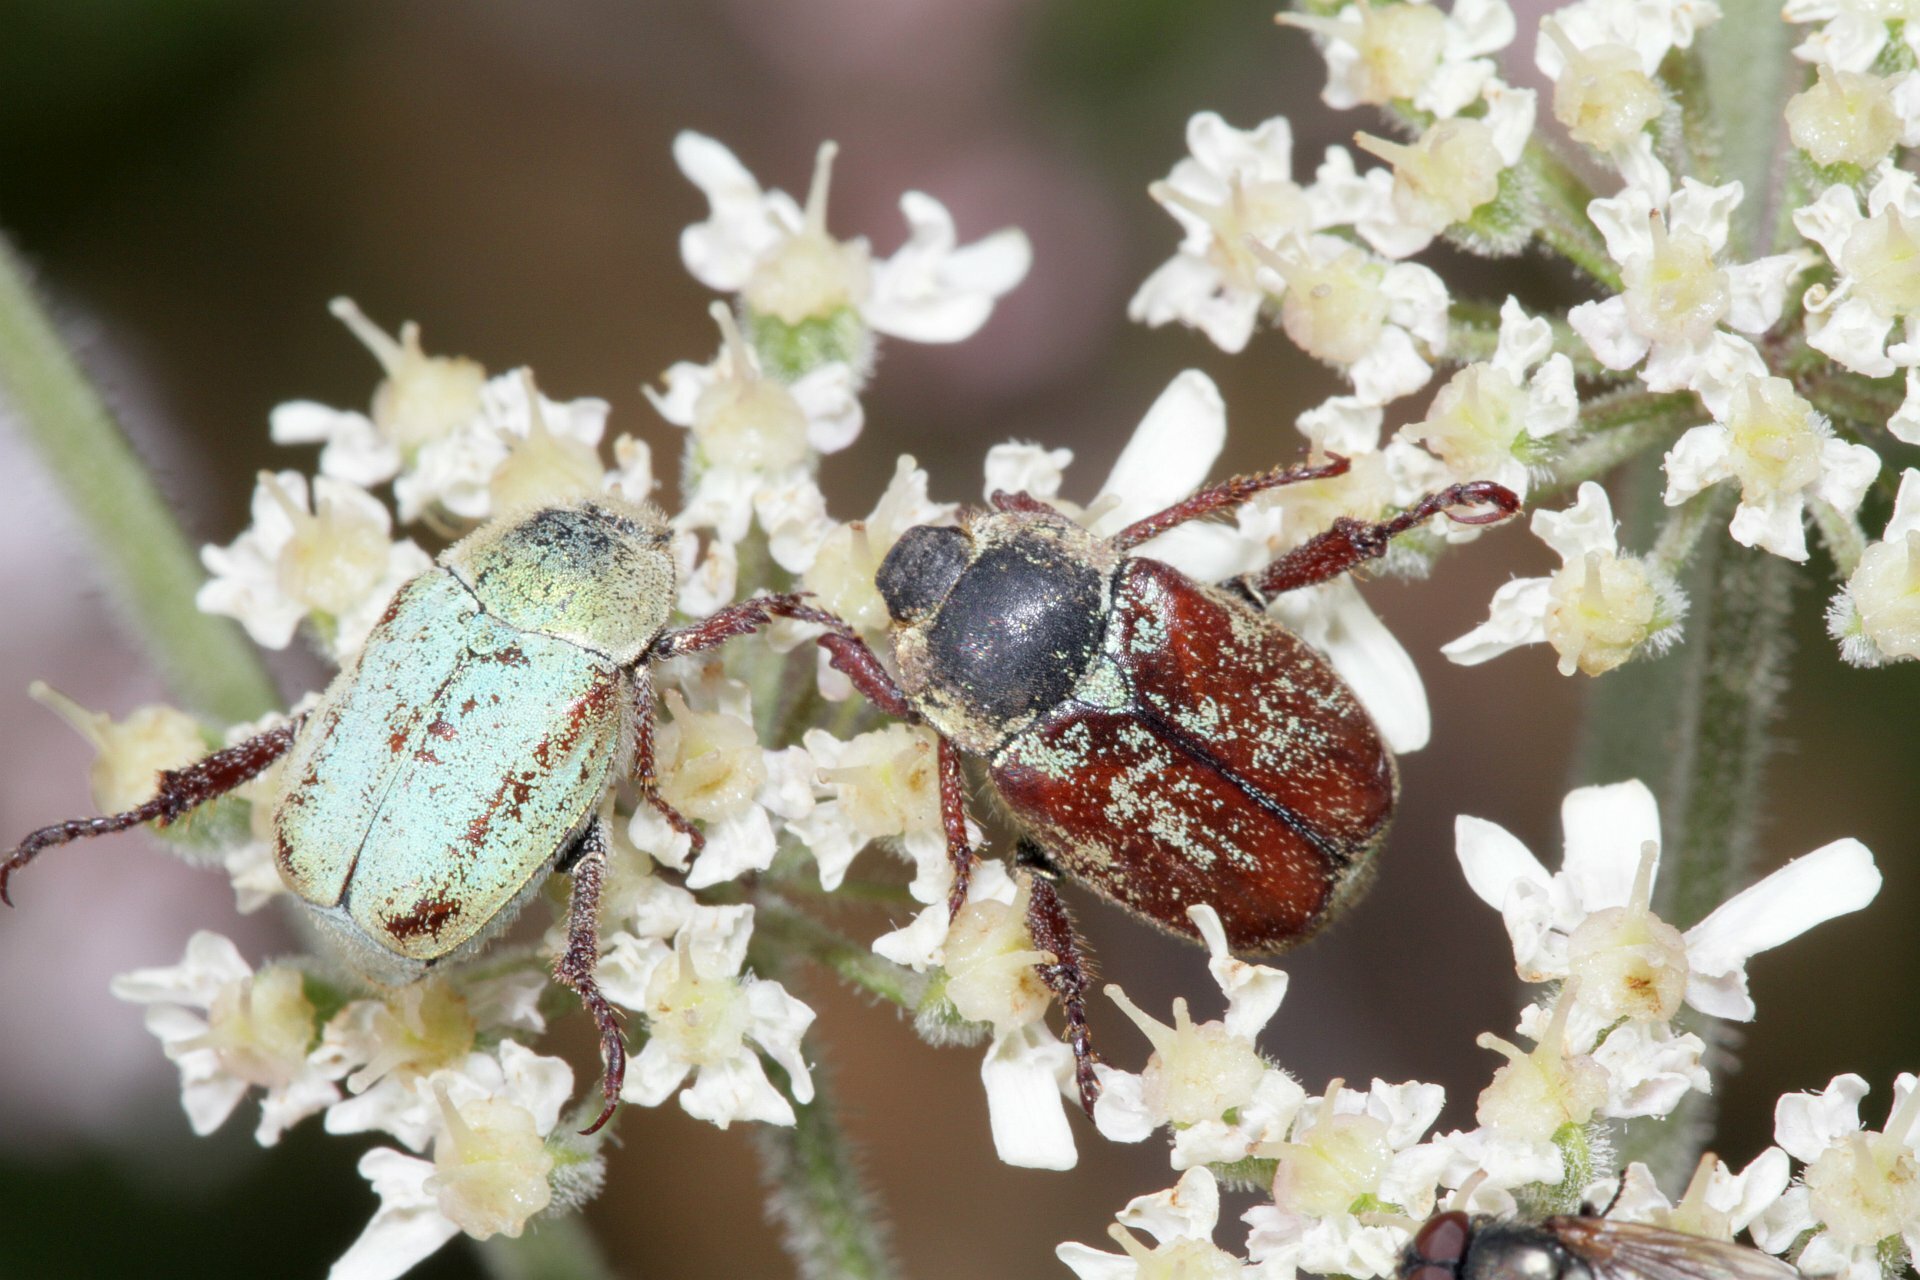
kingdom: Animalia
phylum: Arthropoda
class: Insecta
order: Coleoptera
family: Scarabaeidae
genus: Hoplia
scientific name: Hoplia argentea
